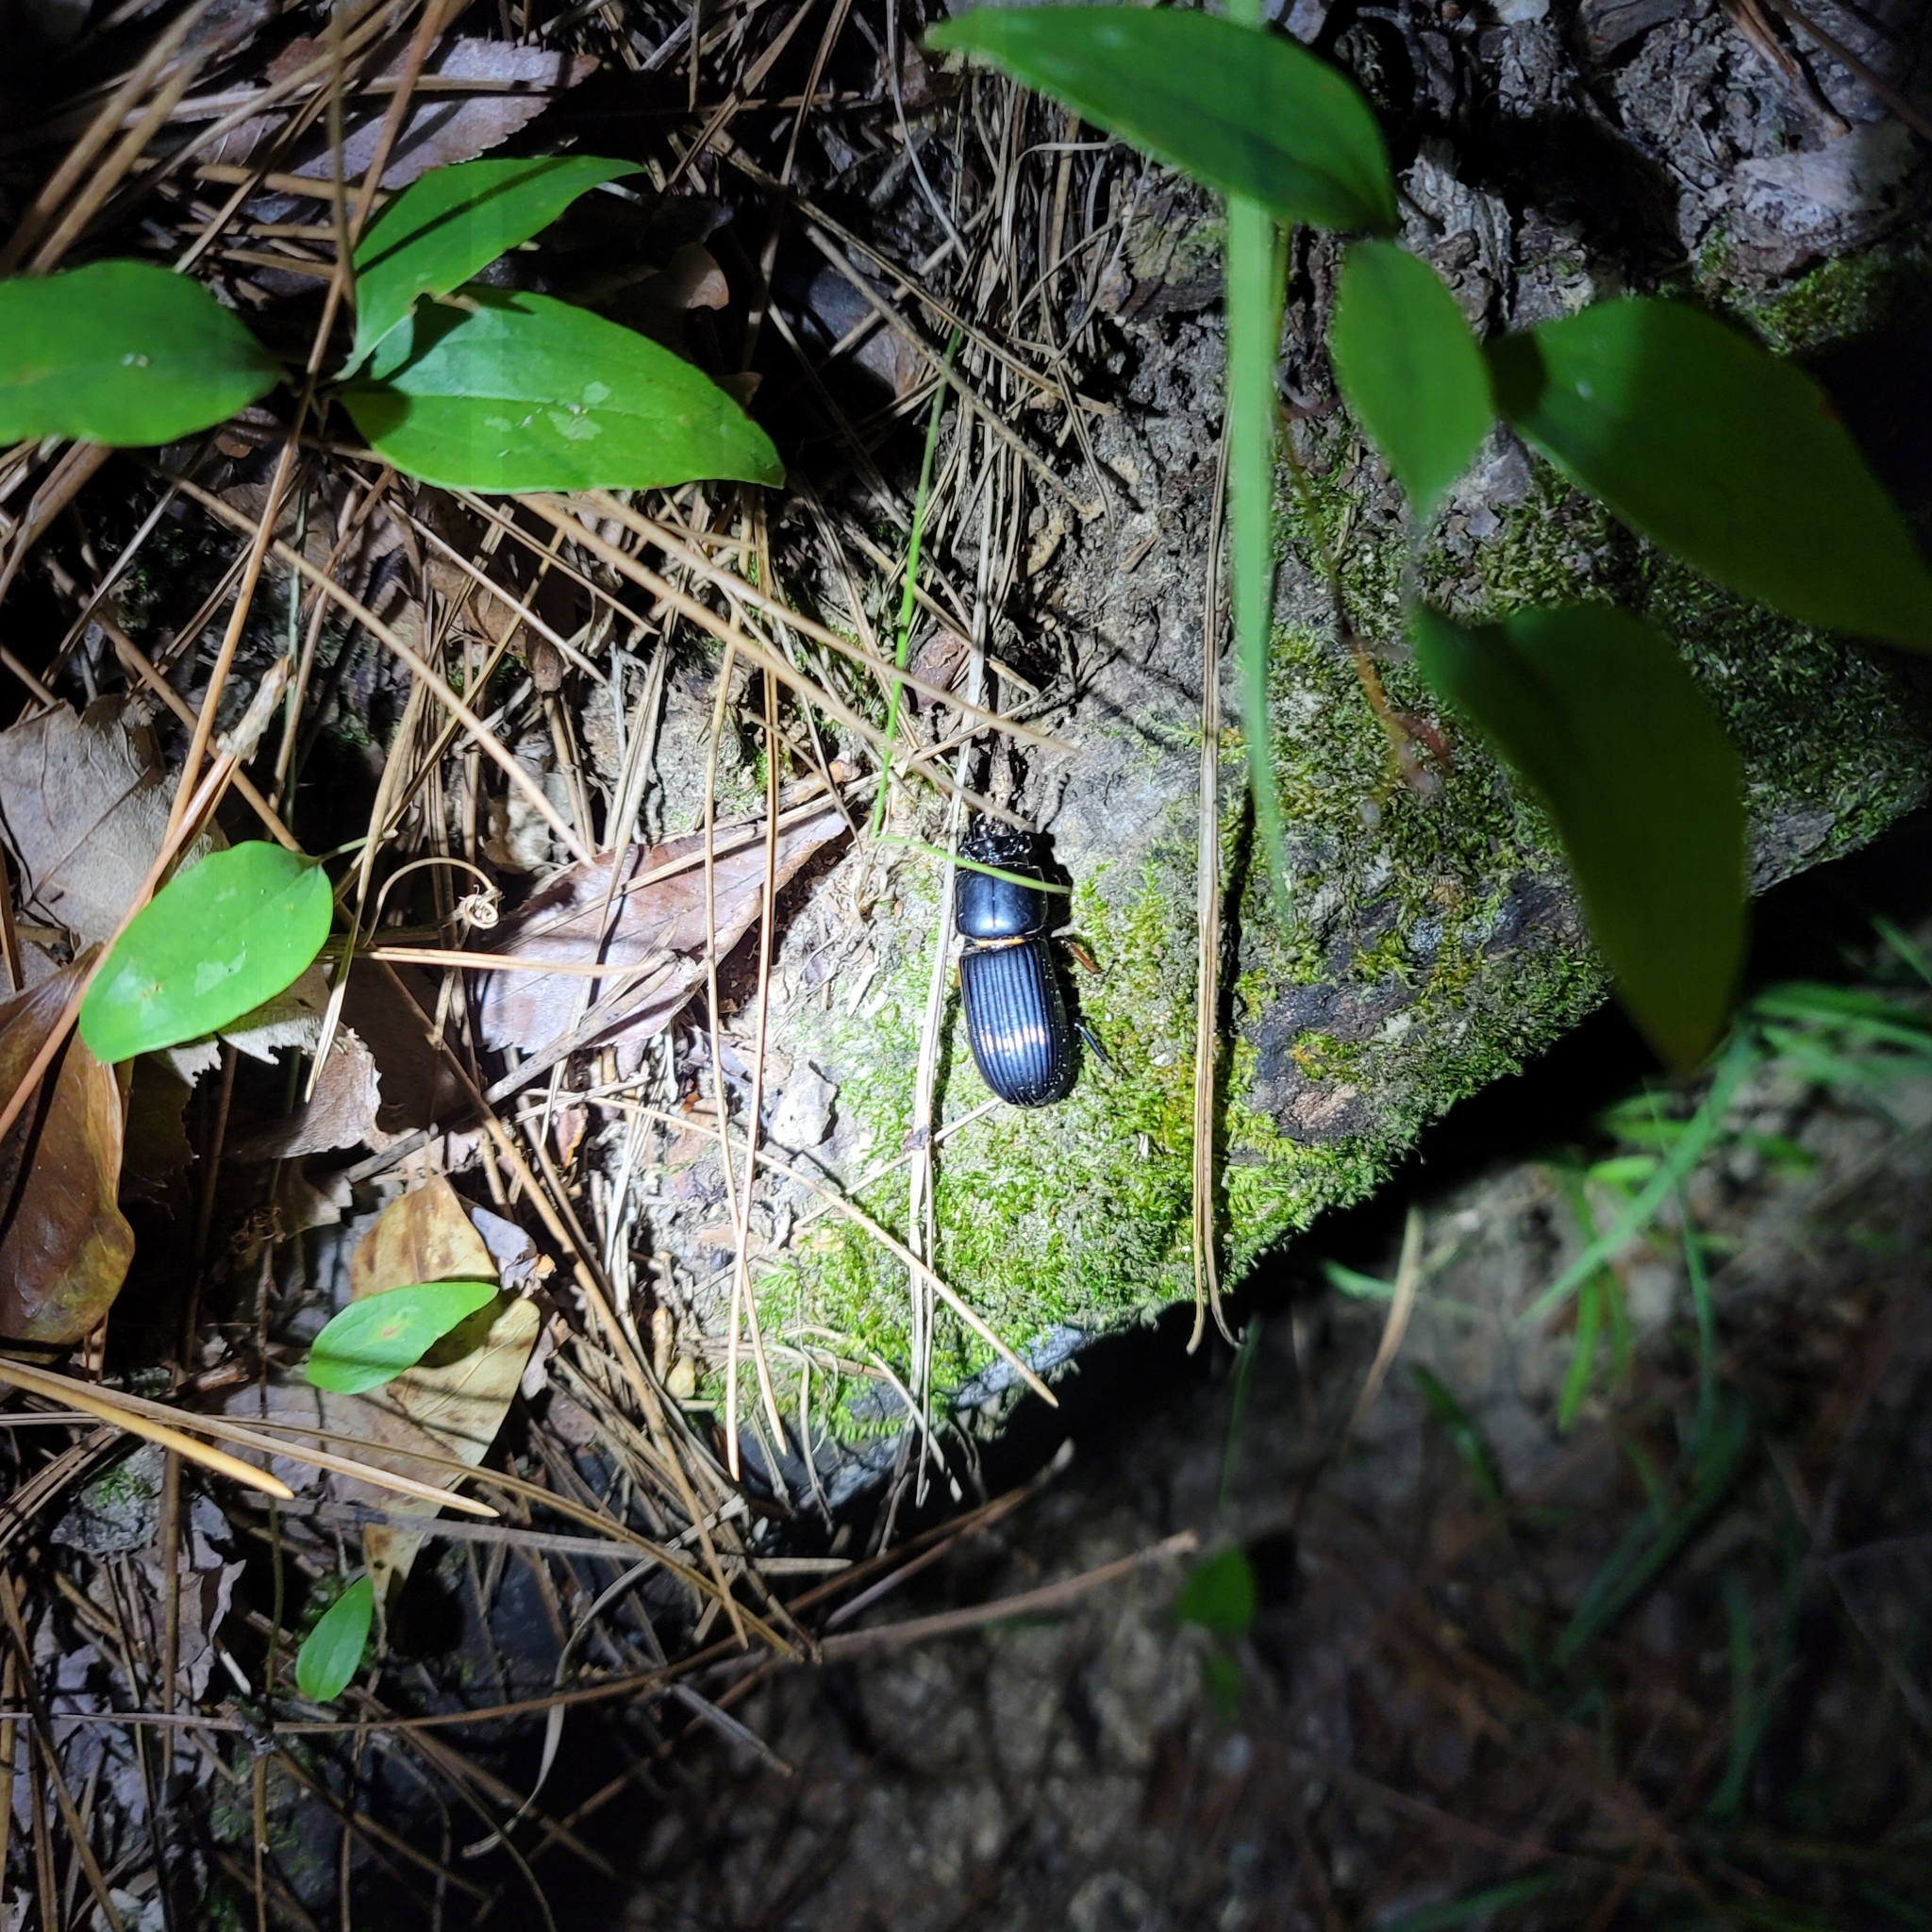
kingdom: Animalia
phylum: Arthropoda
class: Insecta
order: Coleoptera
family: Passalidae
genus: Odontotaenius
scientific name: Odontotaenius disjunctus
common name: Patent leather beetle
